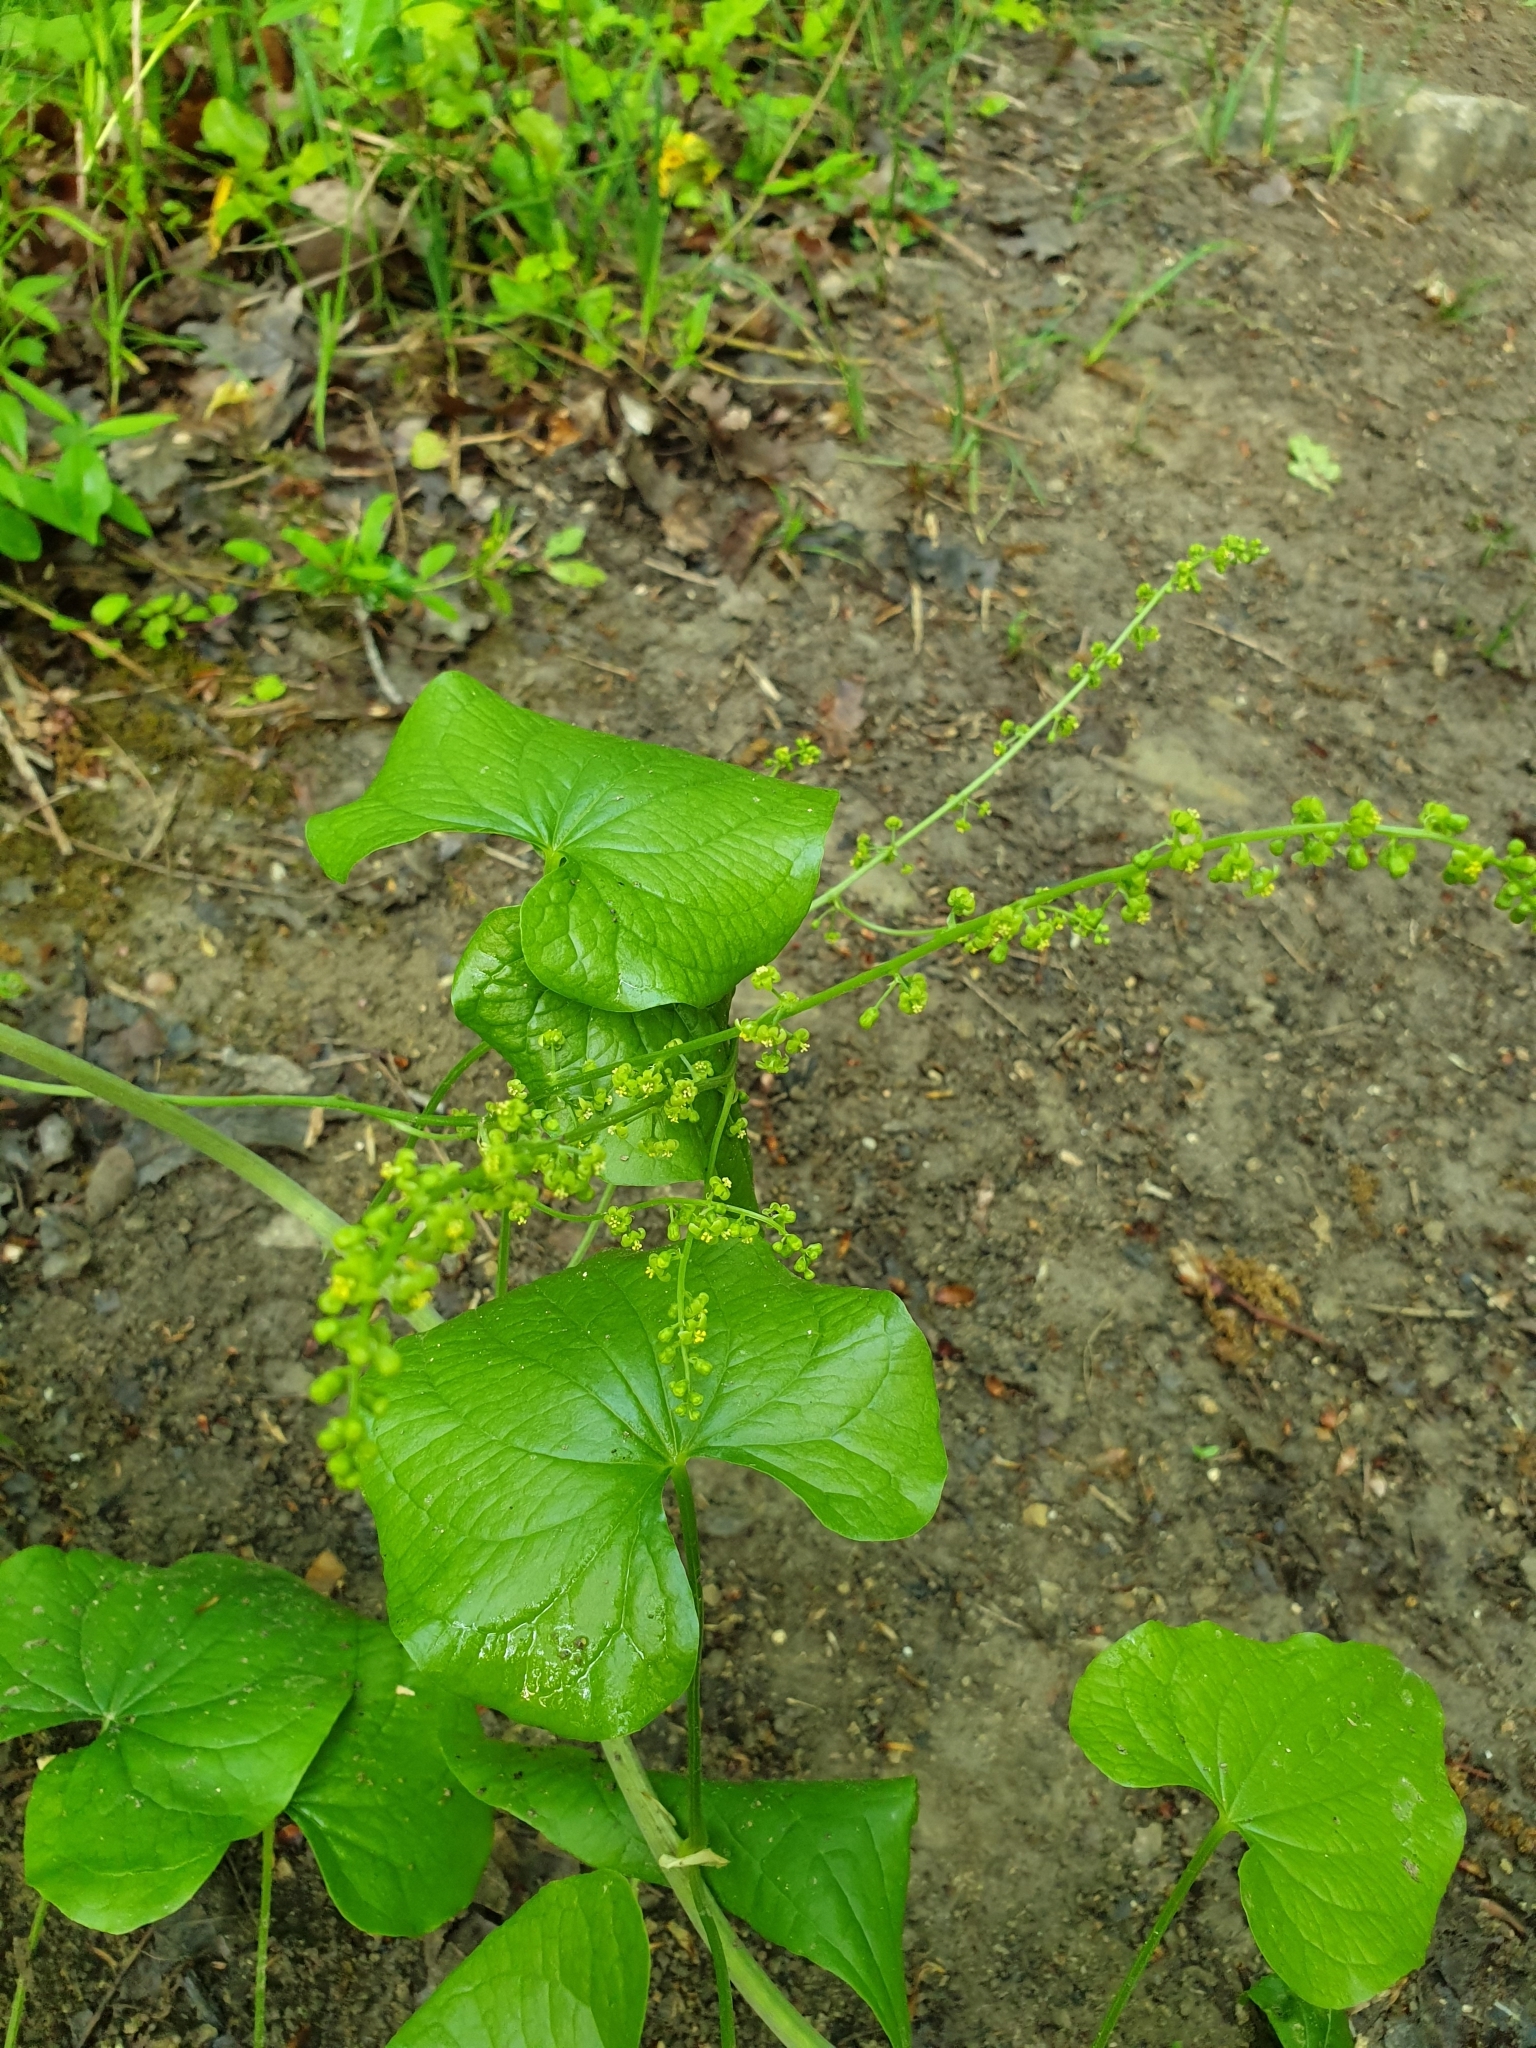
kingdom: Plantae
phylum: Tracheophyta
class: Liliopsida
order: Dioscoreales
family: Dioscoreaceae
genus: Dioscorea
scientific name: Dioscorea communis
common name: Black-bindweed
